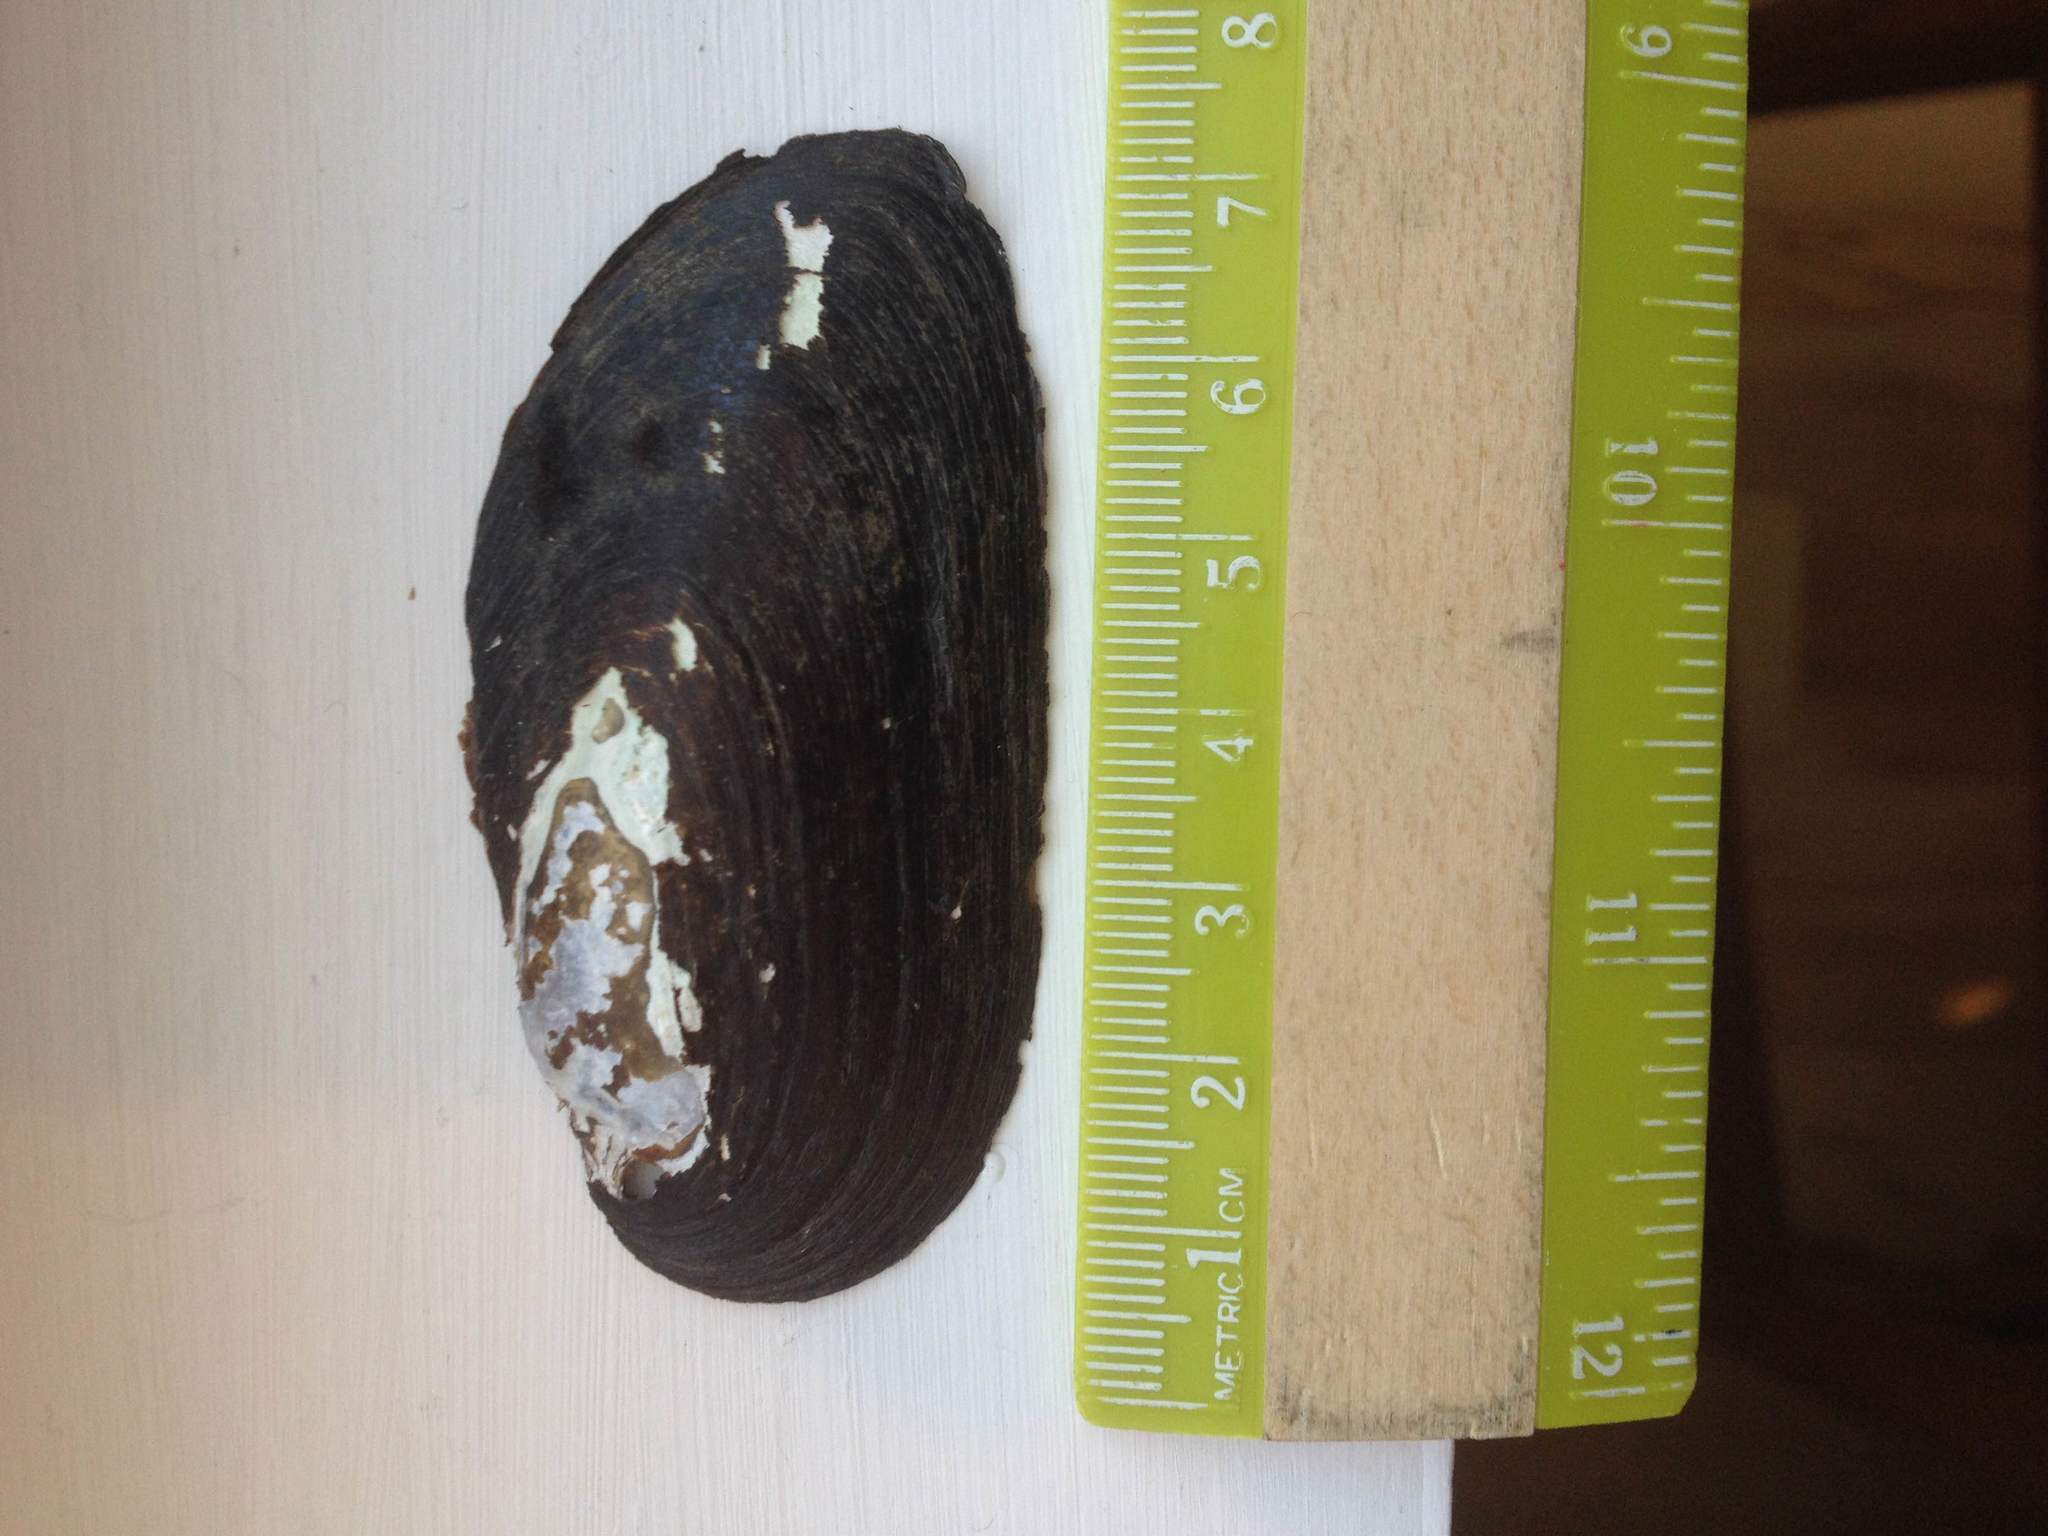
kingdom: Animalia
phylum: Mollusca
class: Bivalvia
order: Unionida
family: Unionidae
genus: Elliptio
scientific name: Elliptio complanata
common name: Eastern elliptio
